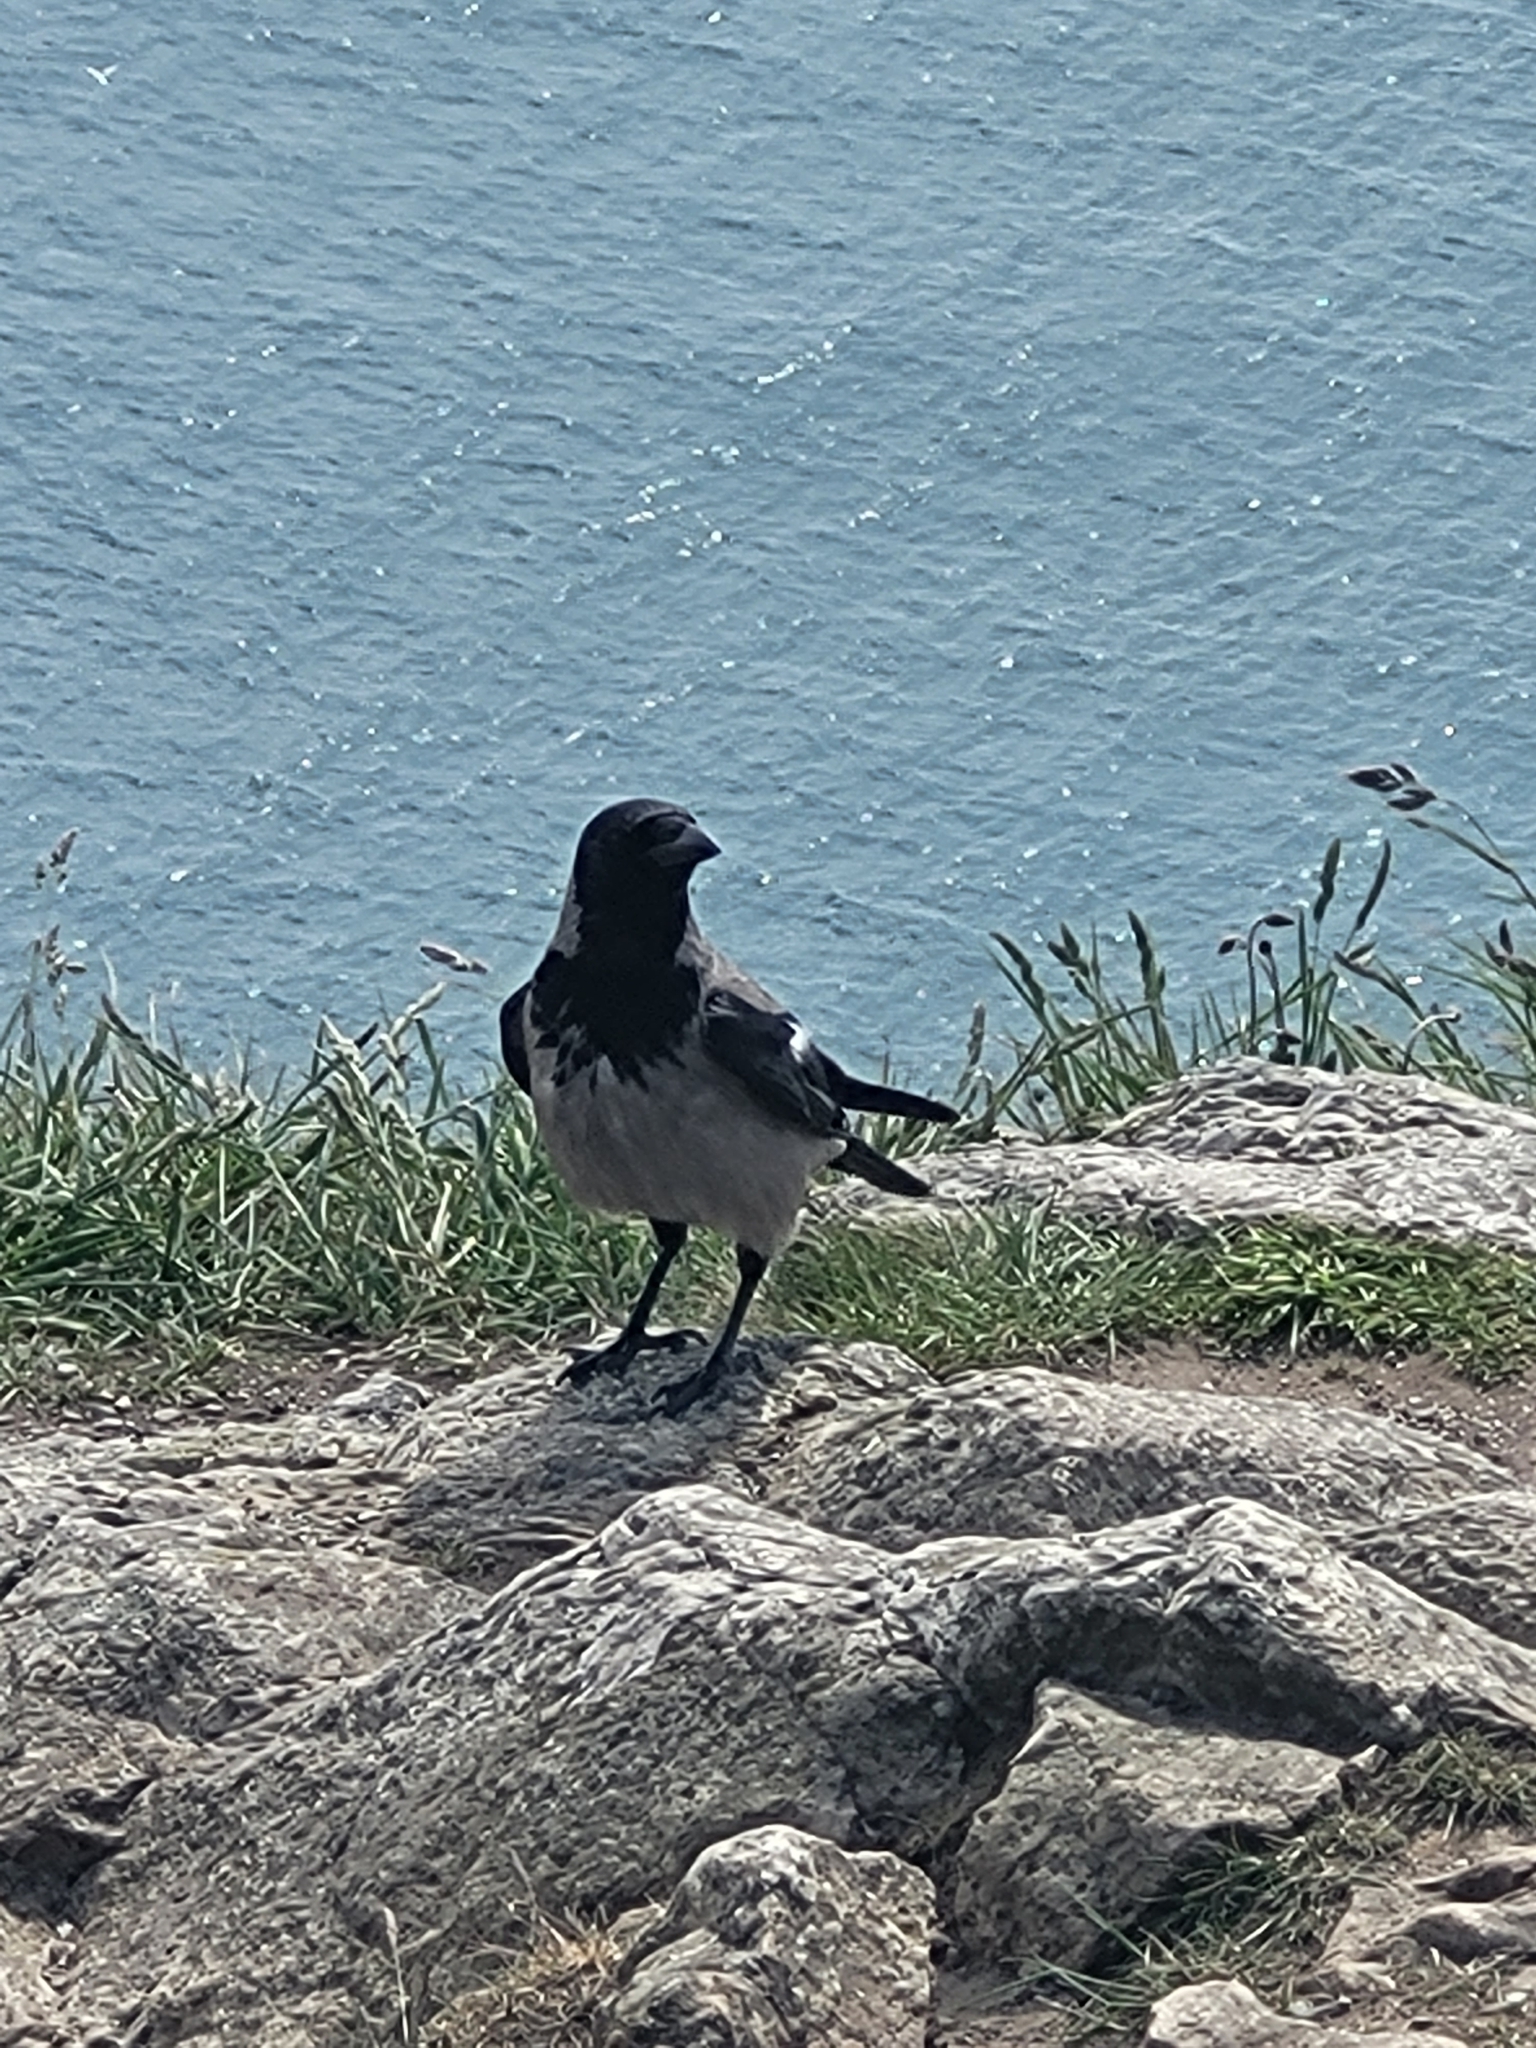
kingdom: Animalia
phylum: Chordata
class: Aves
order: Passeriformes
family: Corvidae
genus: Corvus
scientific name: Corvus cornix
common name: Hooded crow
